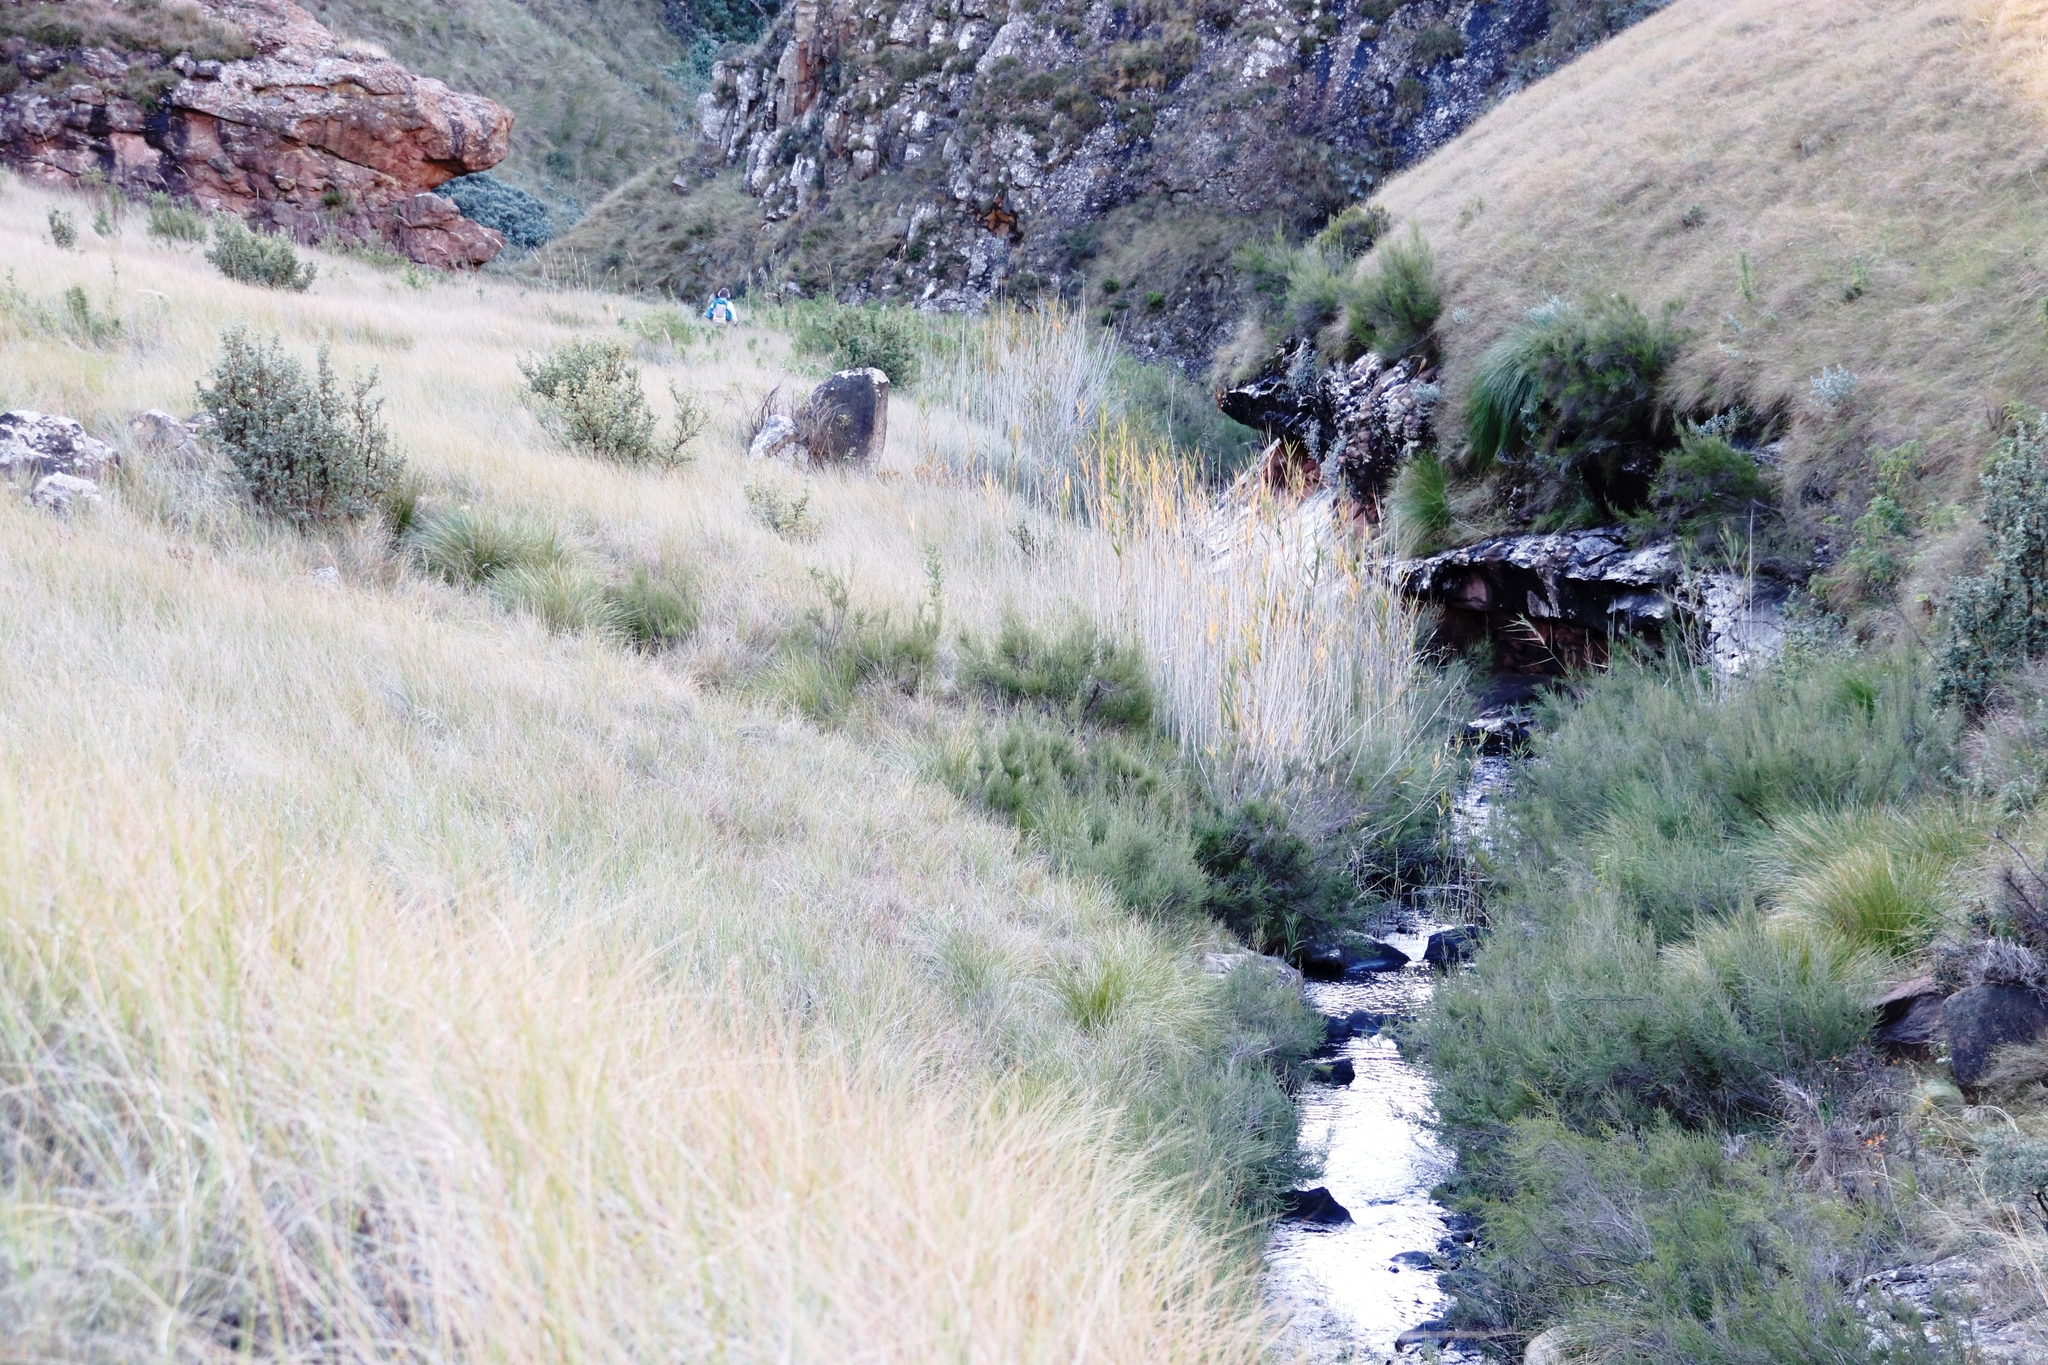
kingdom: Plantae
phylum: Tracheophyta
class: Liliopsida
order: Poales
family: Poaceae
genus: Phragmites
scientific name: Phragmites australis
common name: Common reed
